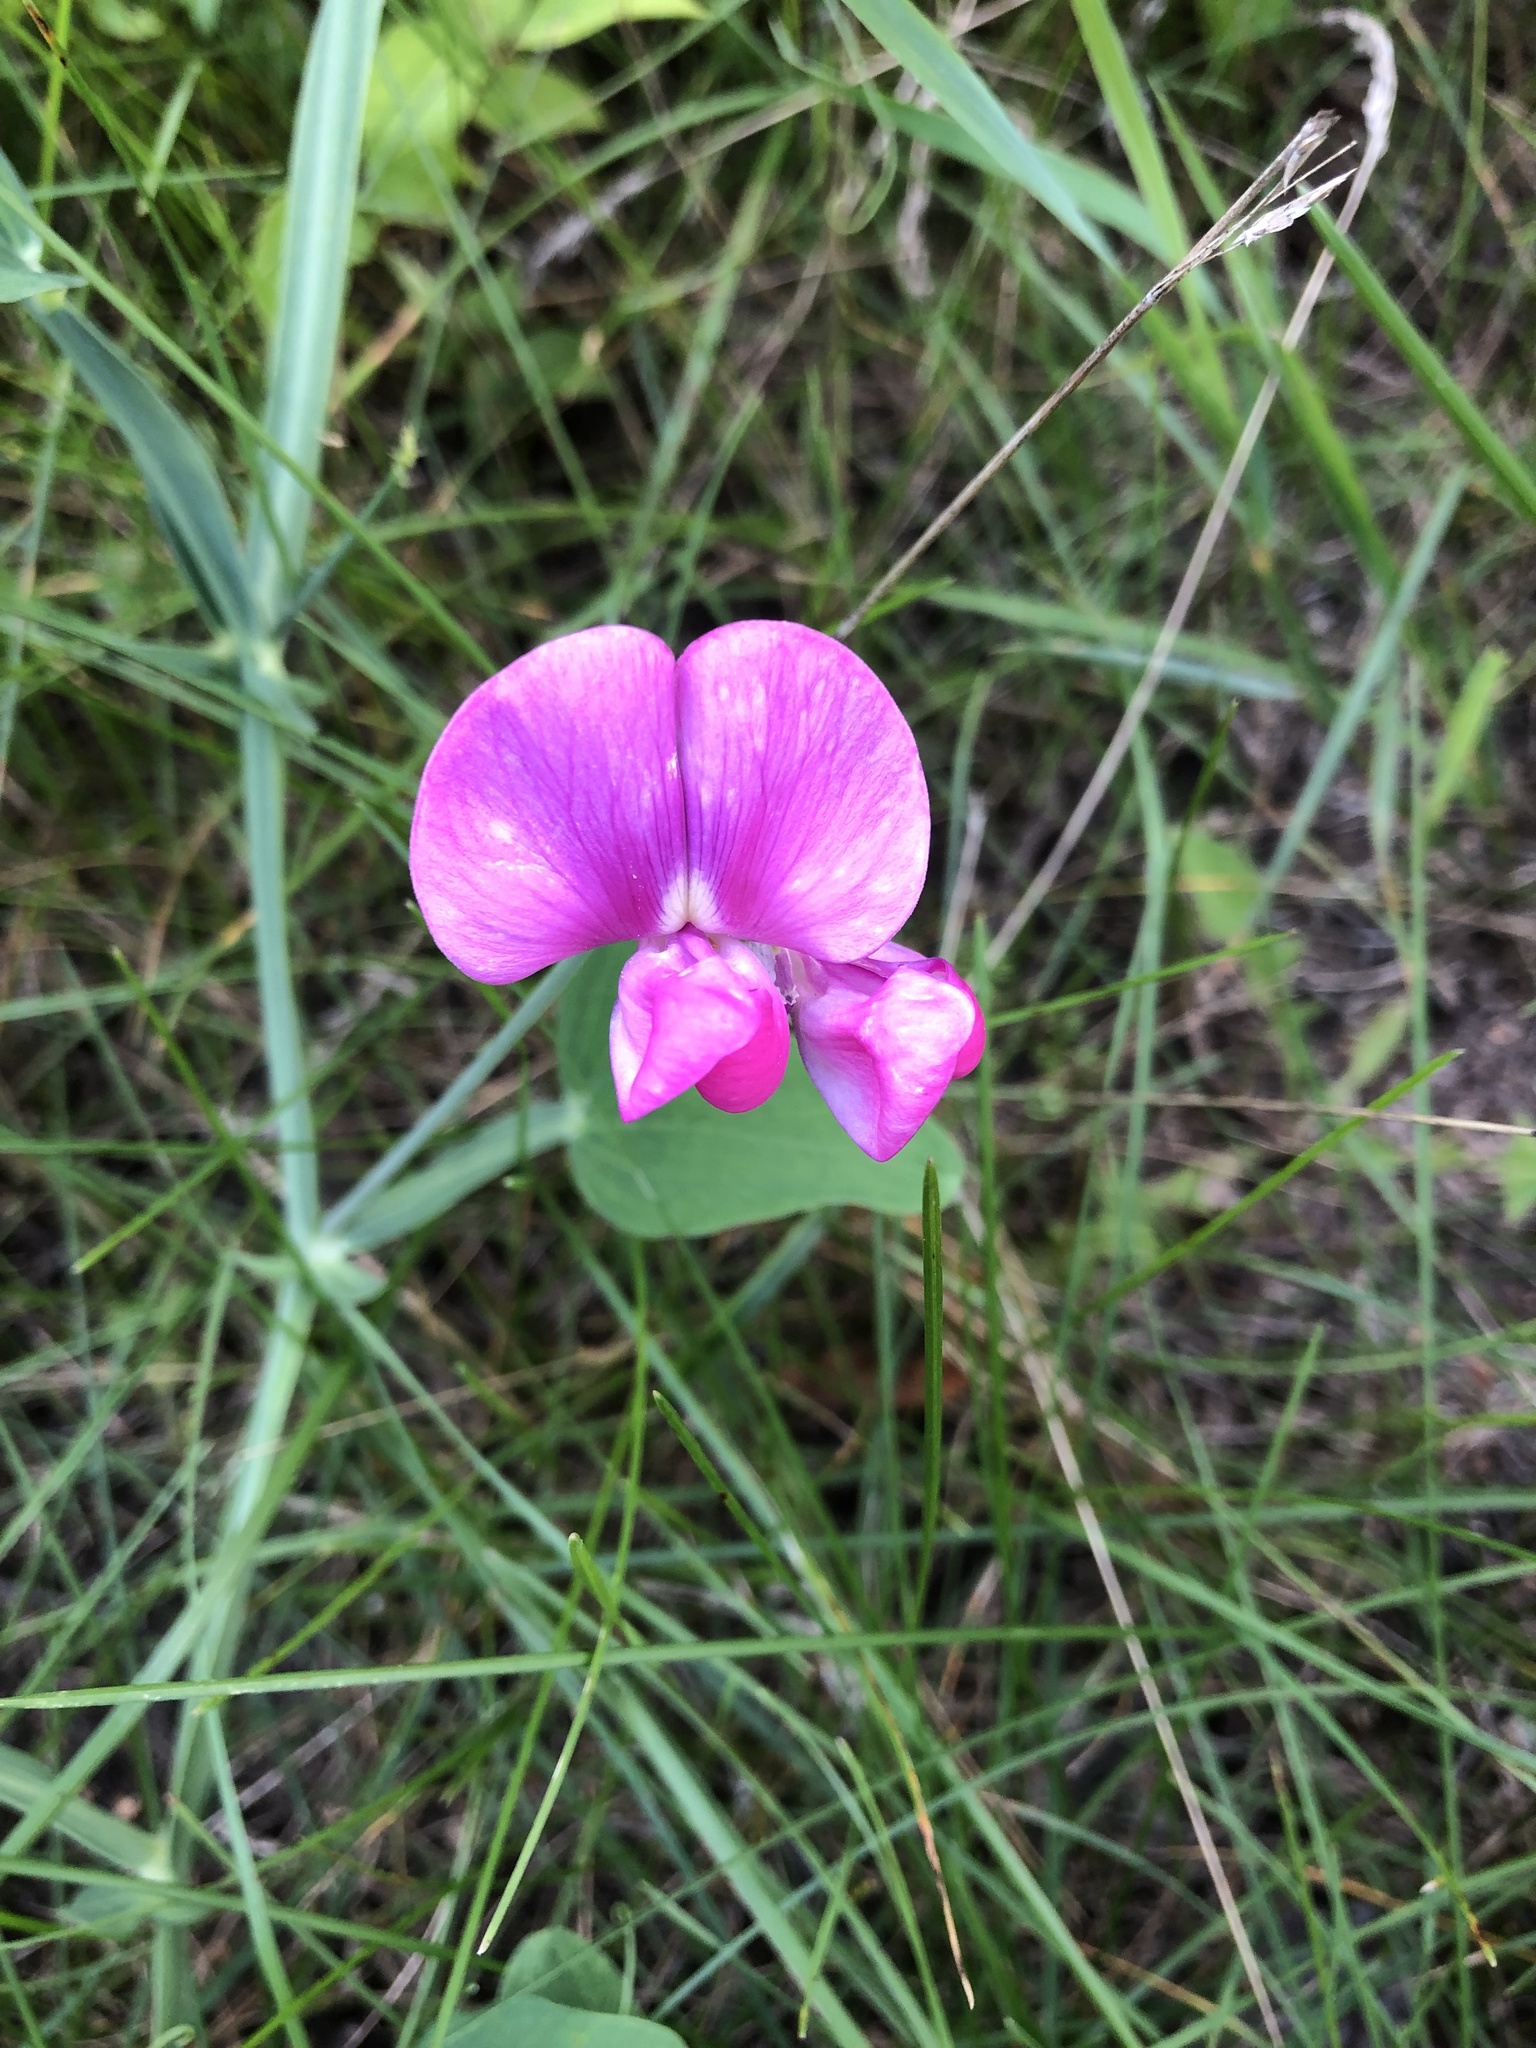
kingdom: Plantae
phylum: Tracheophyta
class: Magnoliopsida
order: Fabales
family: Fabaceae
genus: Lathyrus
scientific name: Lathyrus latifolius
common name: Perennial pea
